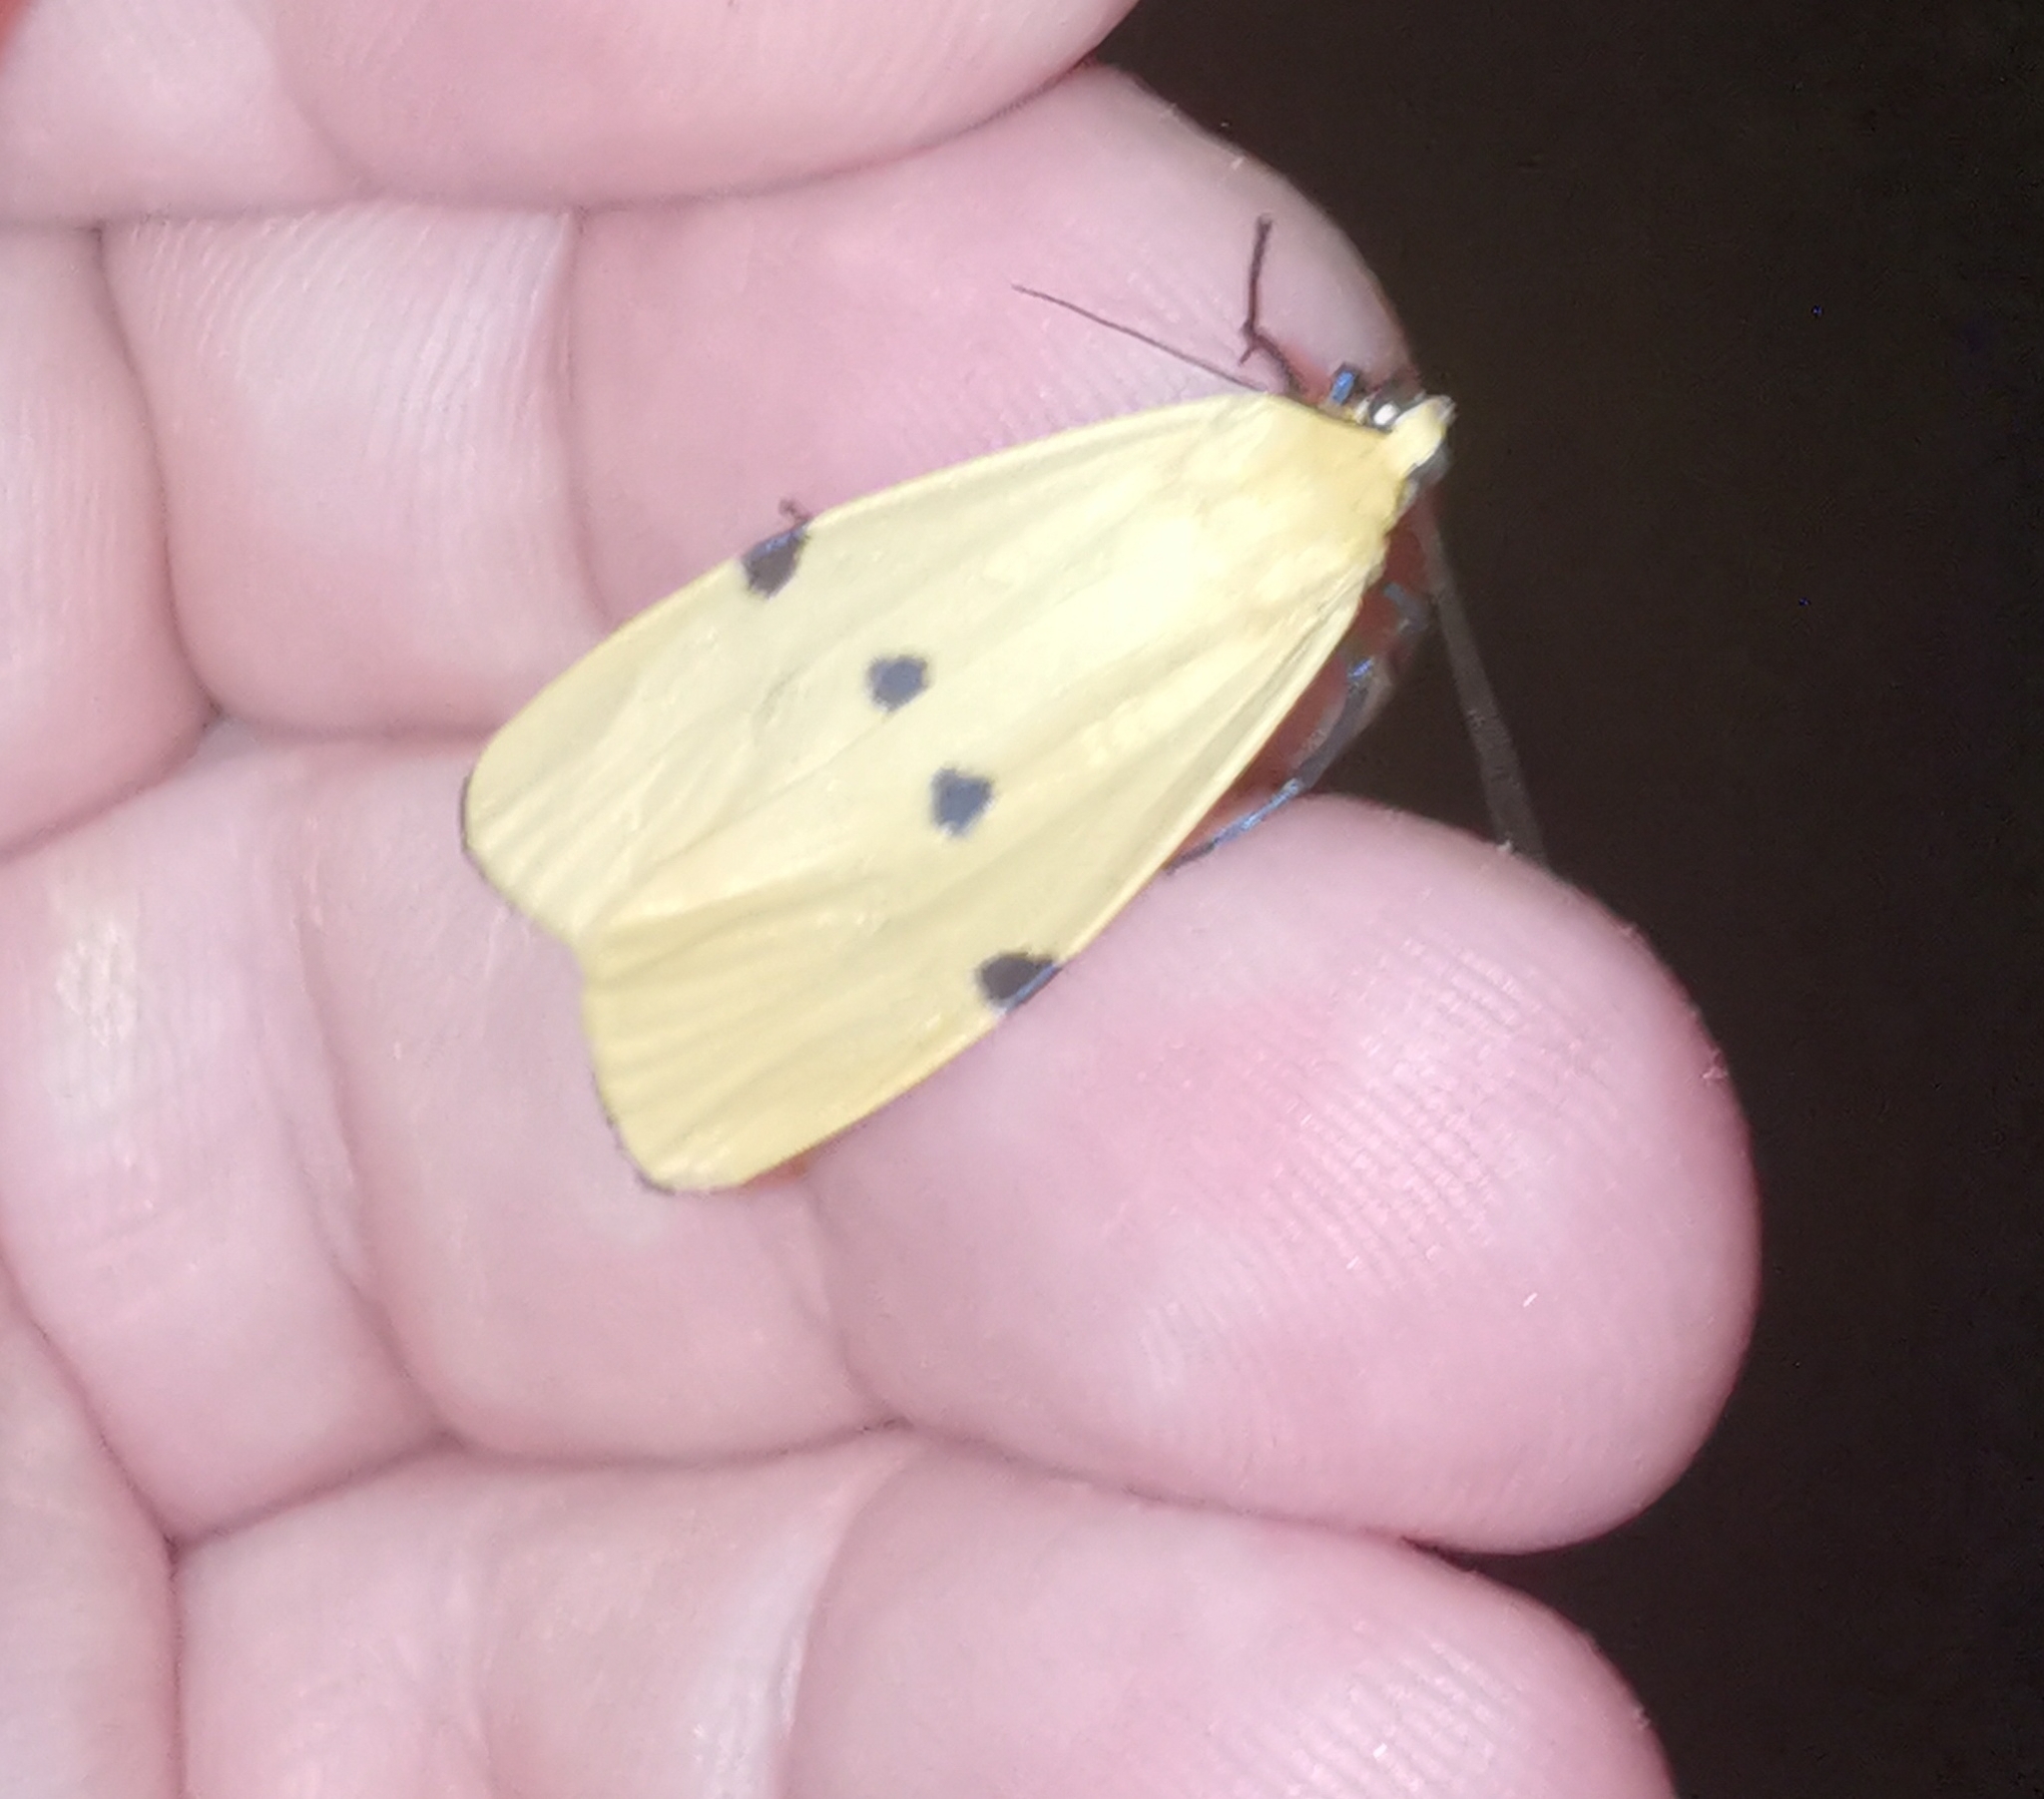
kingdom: Animalia
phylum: Arthropoda
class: Insecta
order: Lepidoptera
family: Erebidae
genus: Lithosia
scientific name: Lithosia quadra
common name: Four-spotted footman
